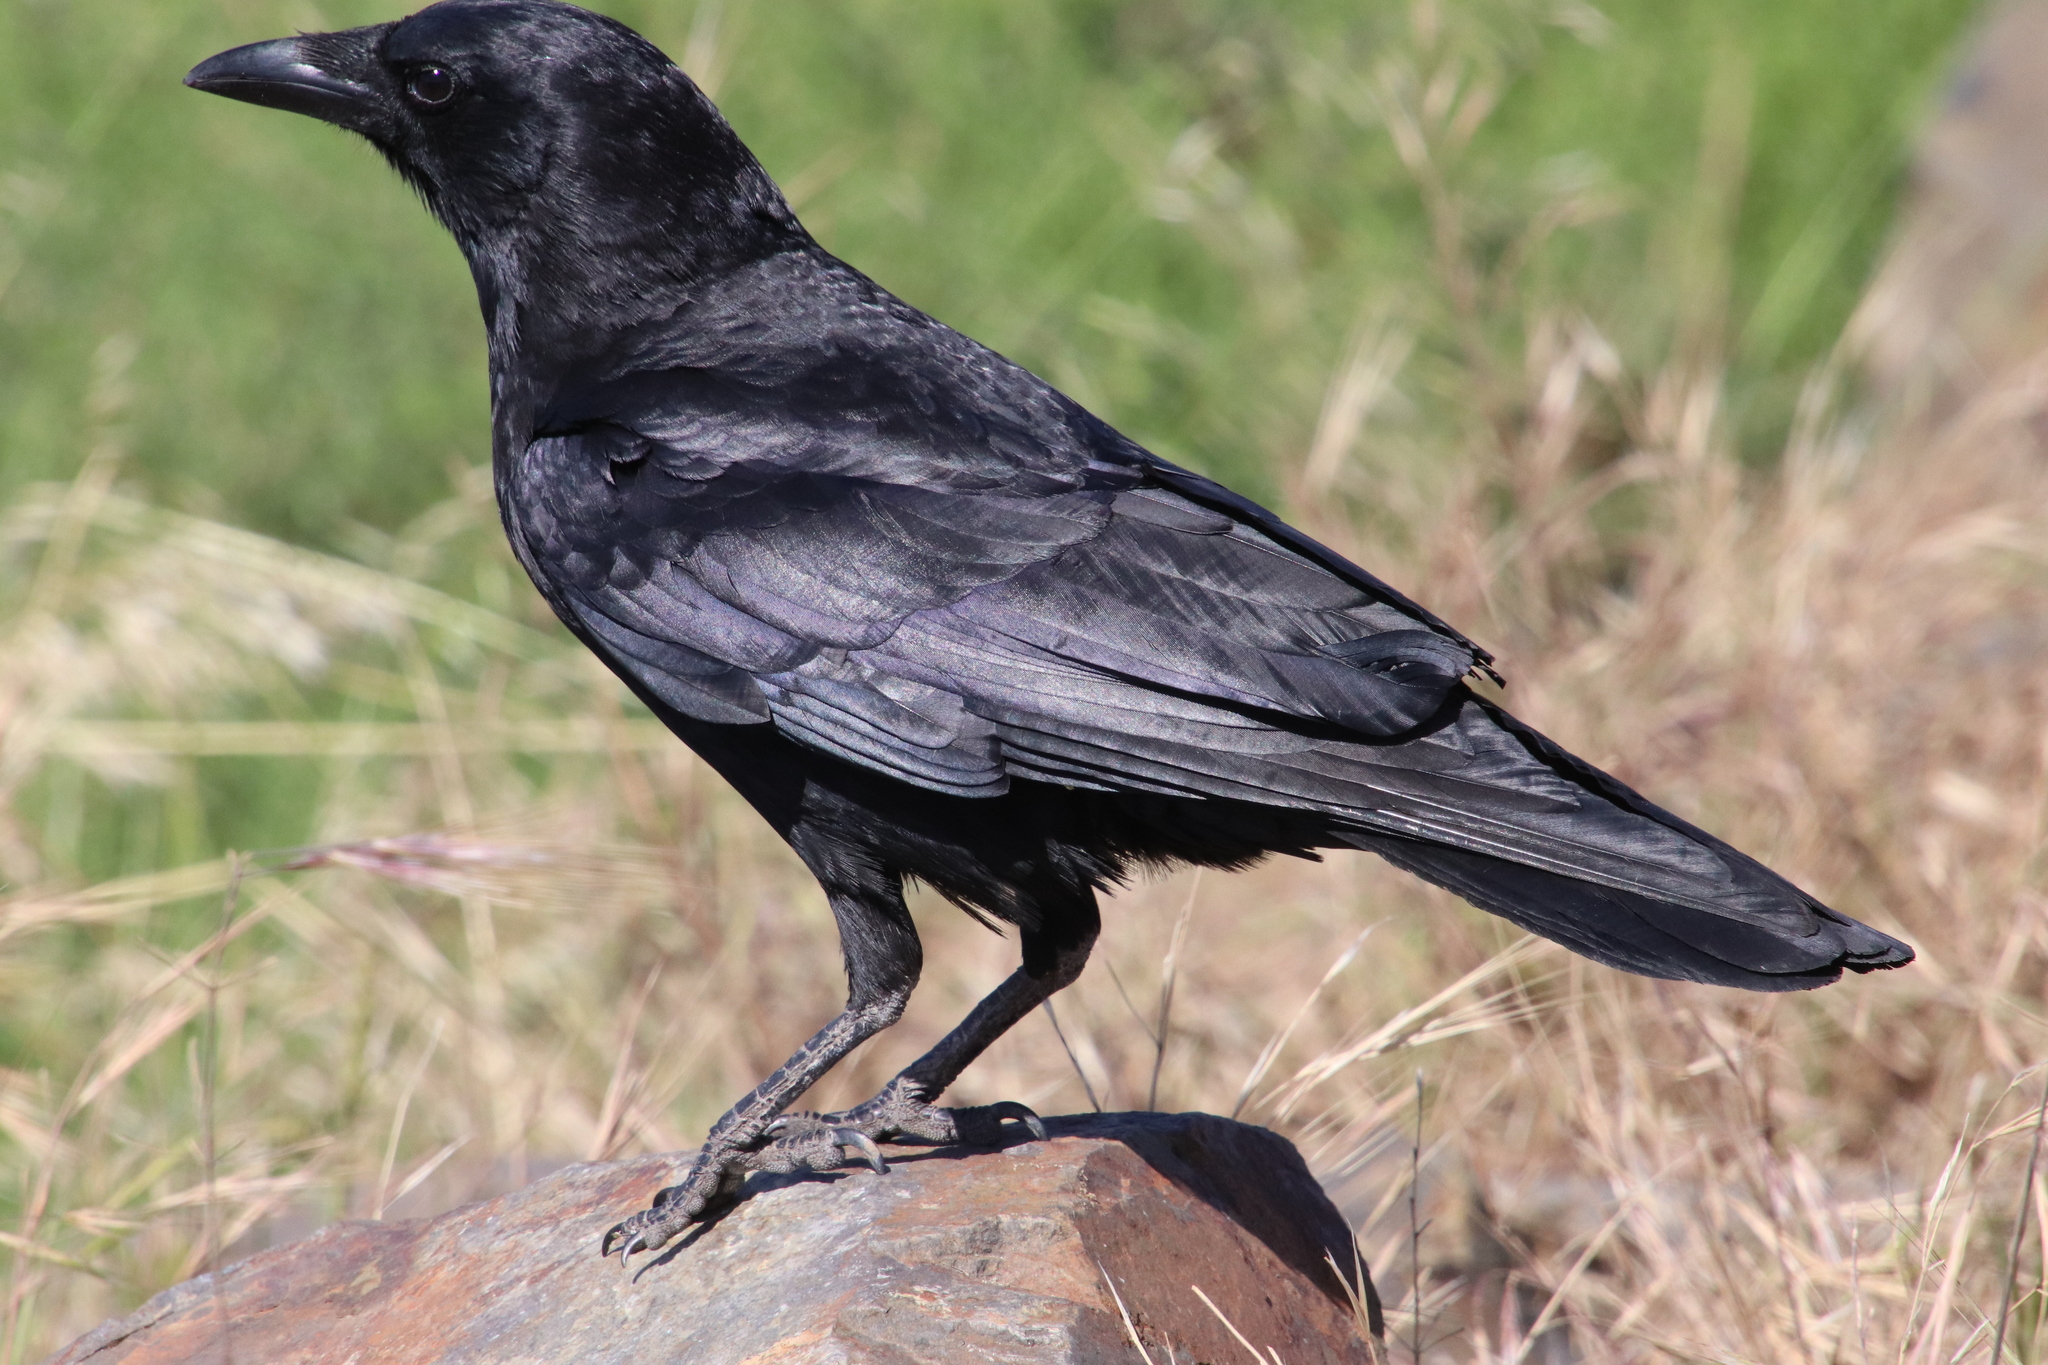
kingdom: Animalia
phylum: Chordata
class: Aves
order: Passeriformes
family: Corvidae
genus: Corvus
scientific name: Corvus brachyrhynchos
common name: American crow
